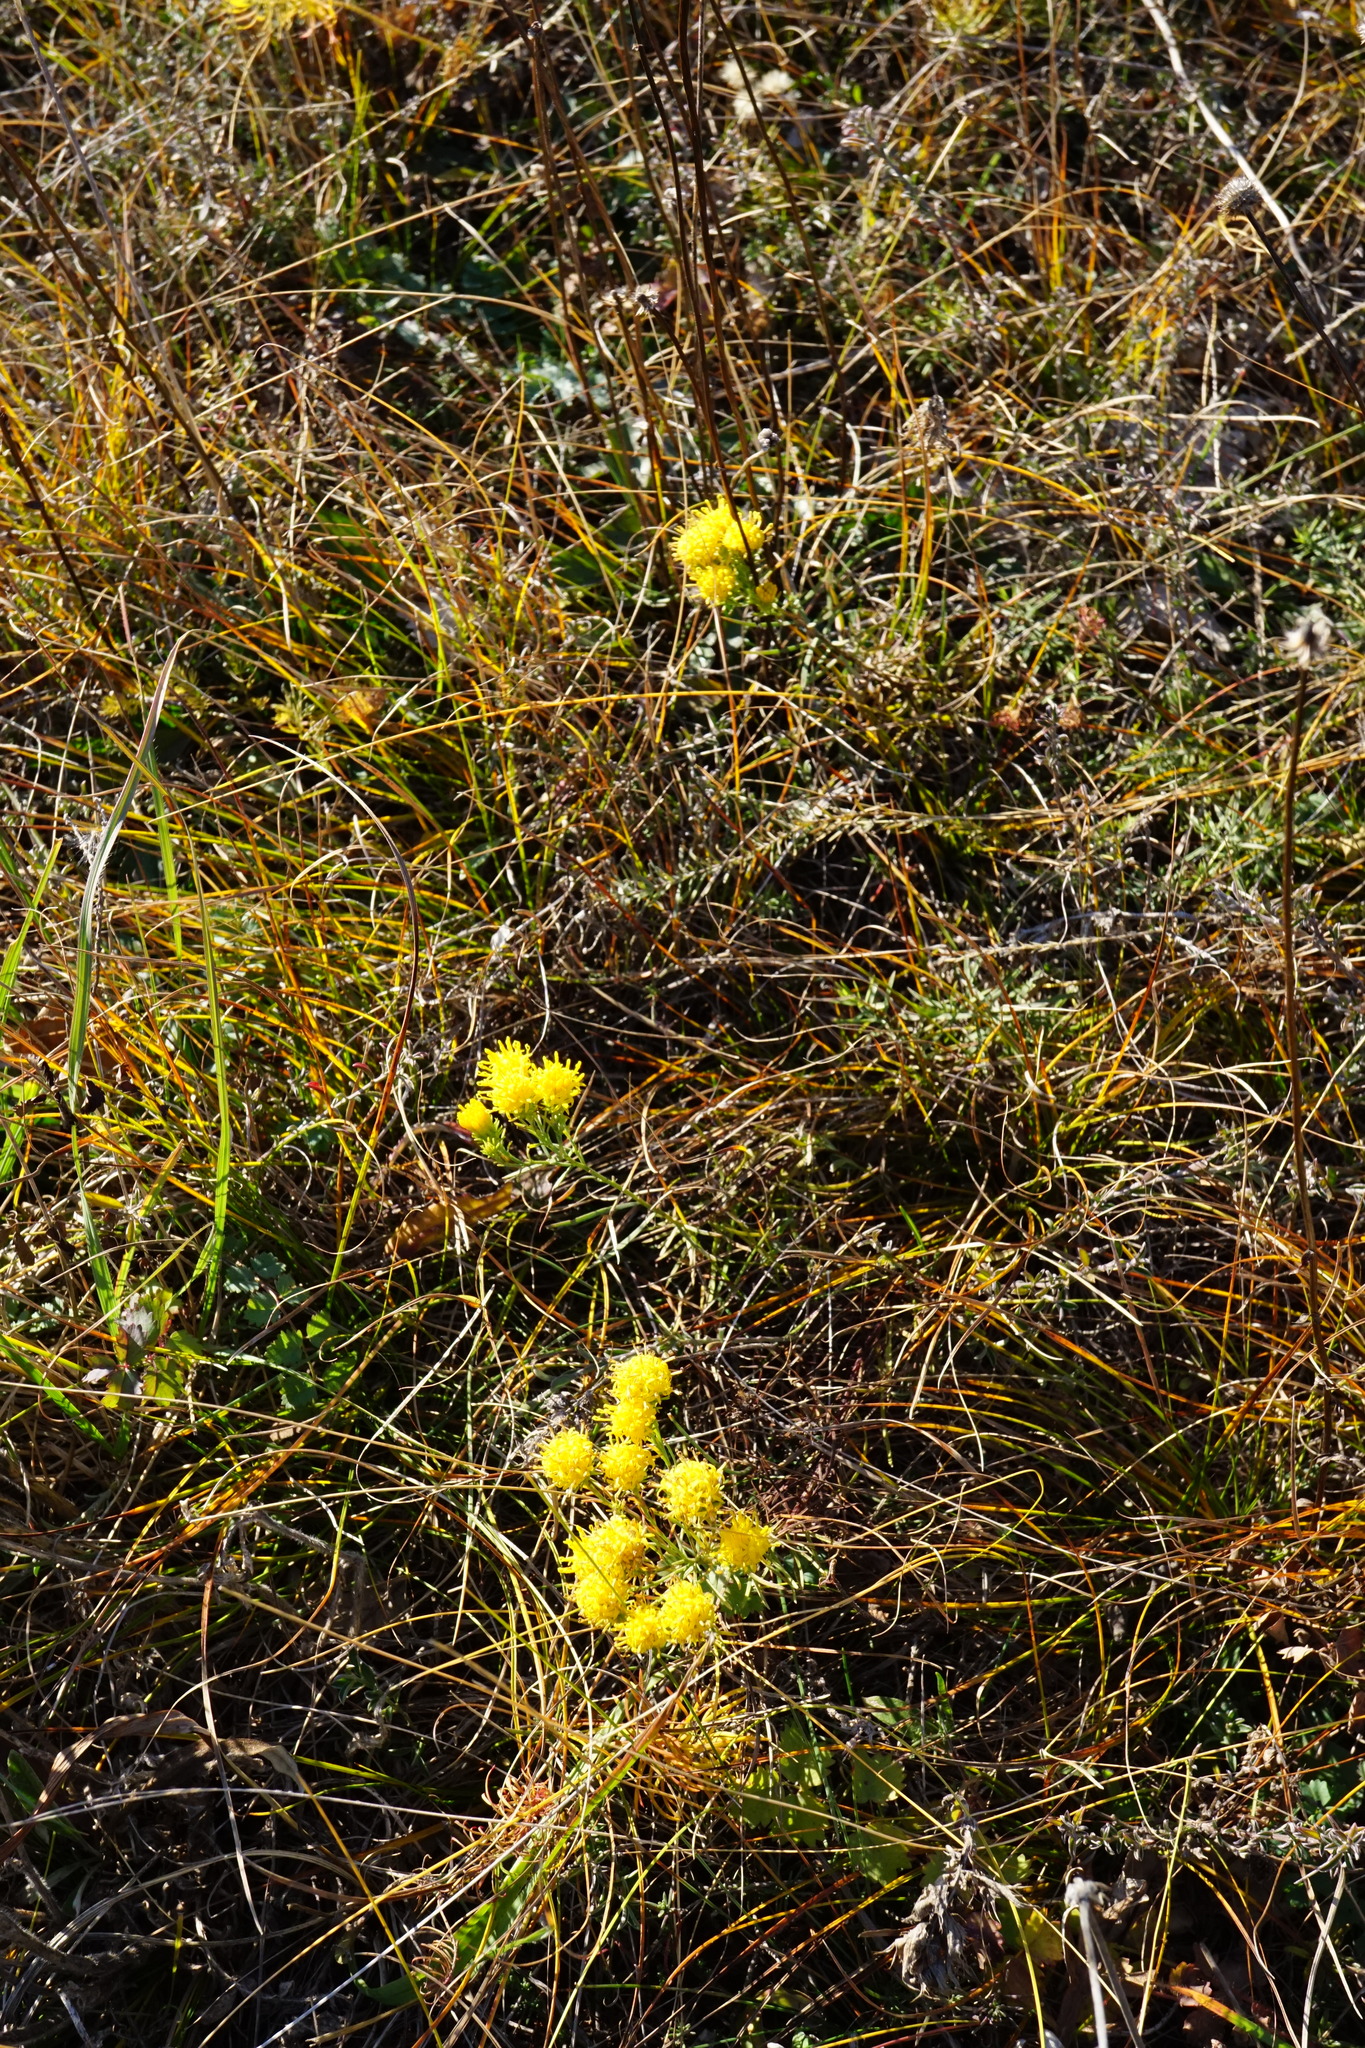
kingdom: Plantae
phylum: Tracheophyta
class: Magnoliopsida
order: Asterales
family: Asteraceae
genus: Galatella
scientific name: Galatella linosyris
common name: Goldilocks aster
